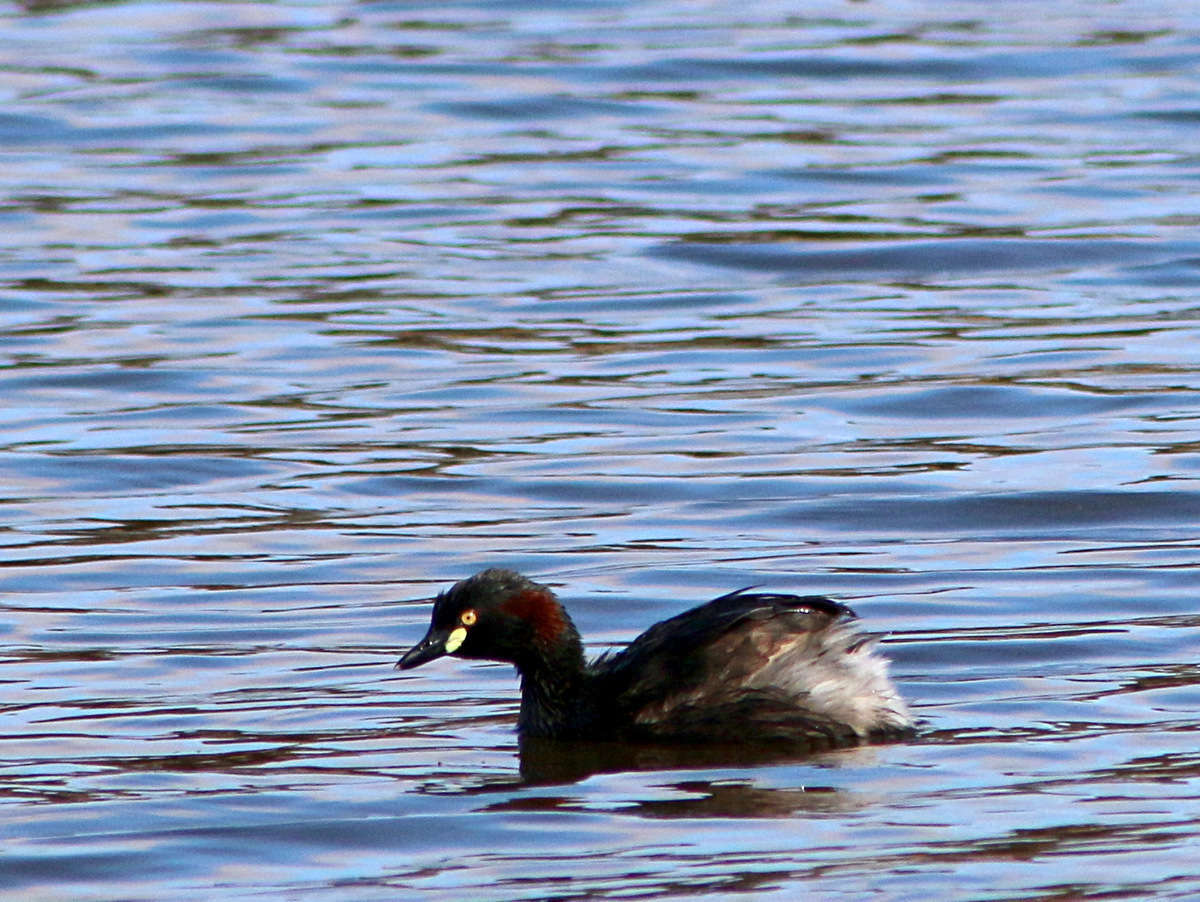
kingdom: Animalia
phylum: Chordata
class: Aves
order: Podicipediformes
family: Podicipedidae
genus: Tachybaptus
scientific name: Tachybaptus novaehollandiae
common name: Australasian grebe
